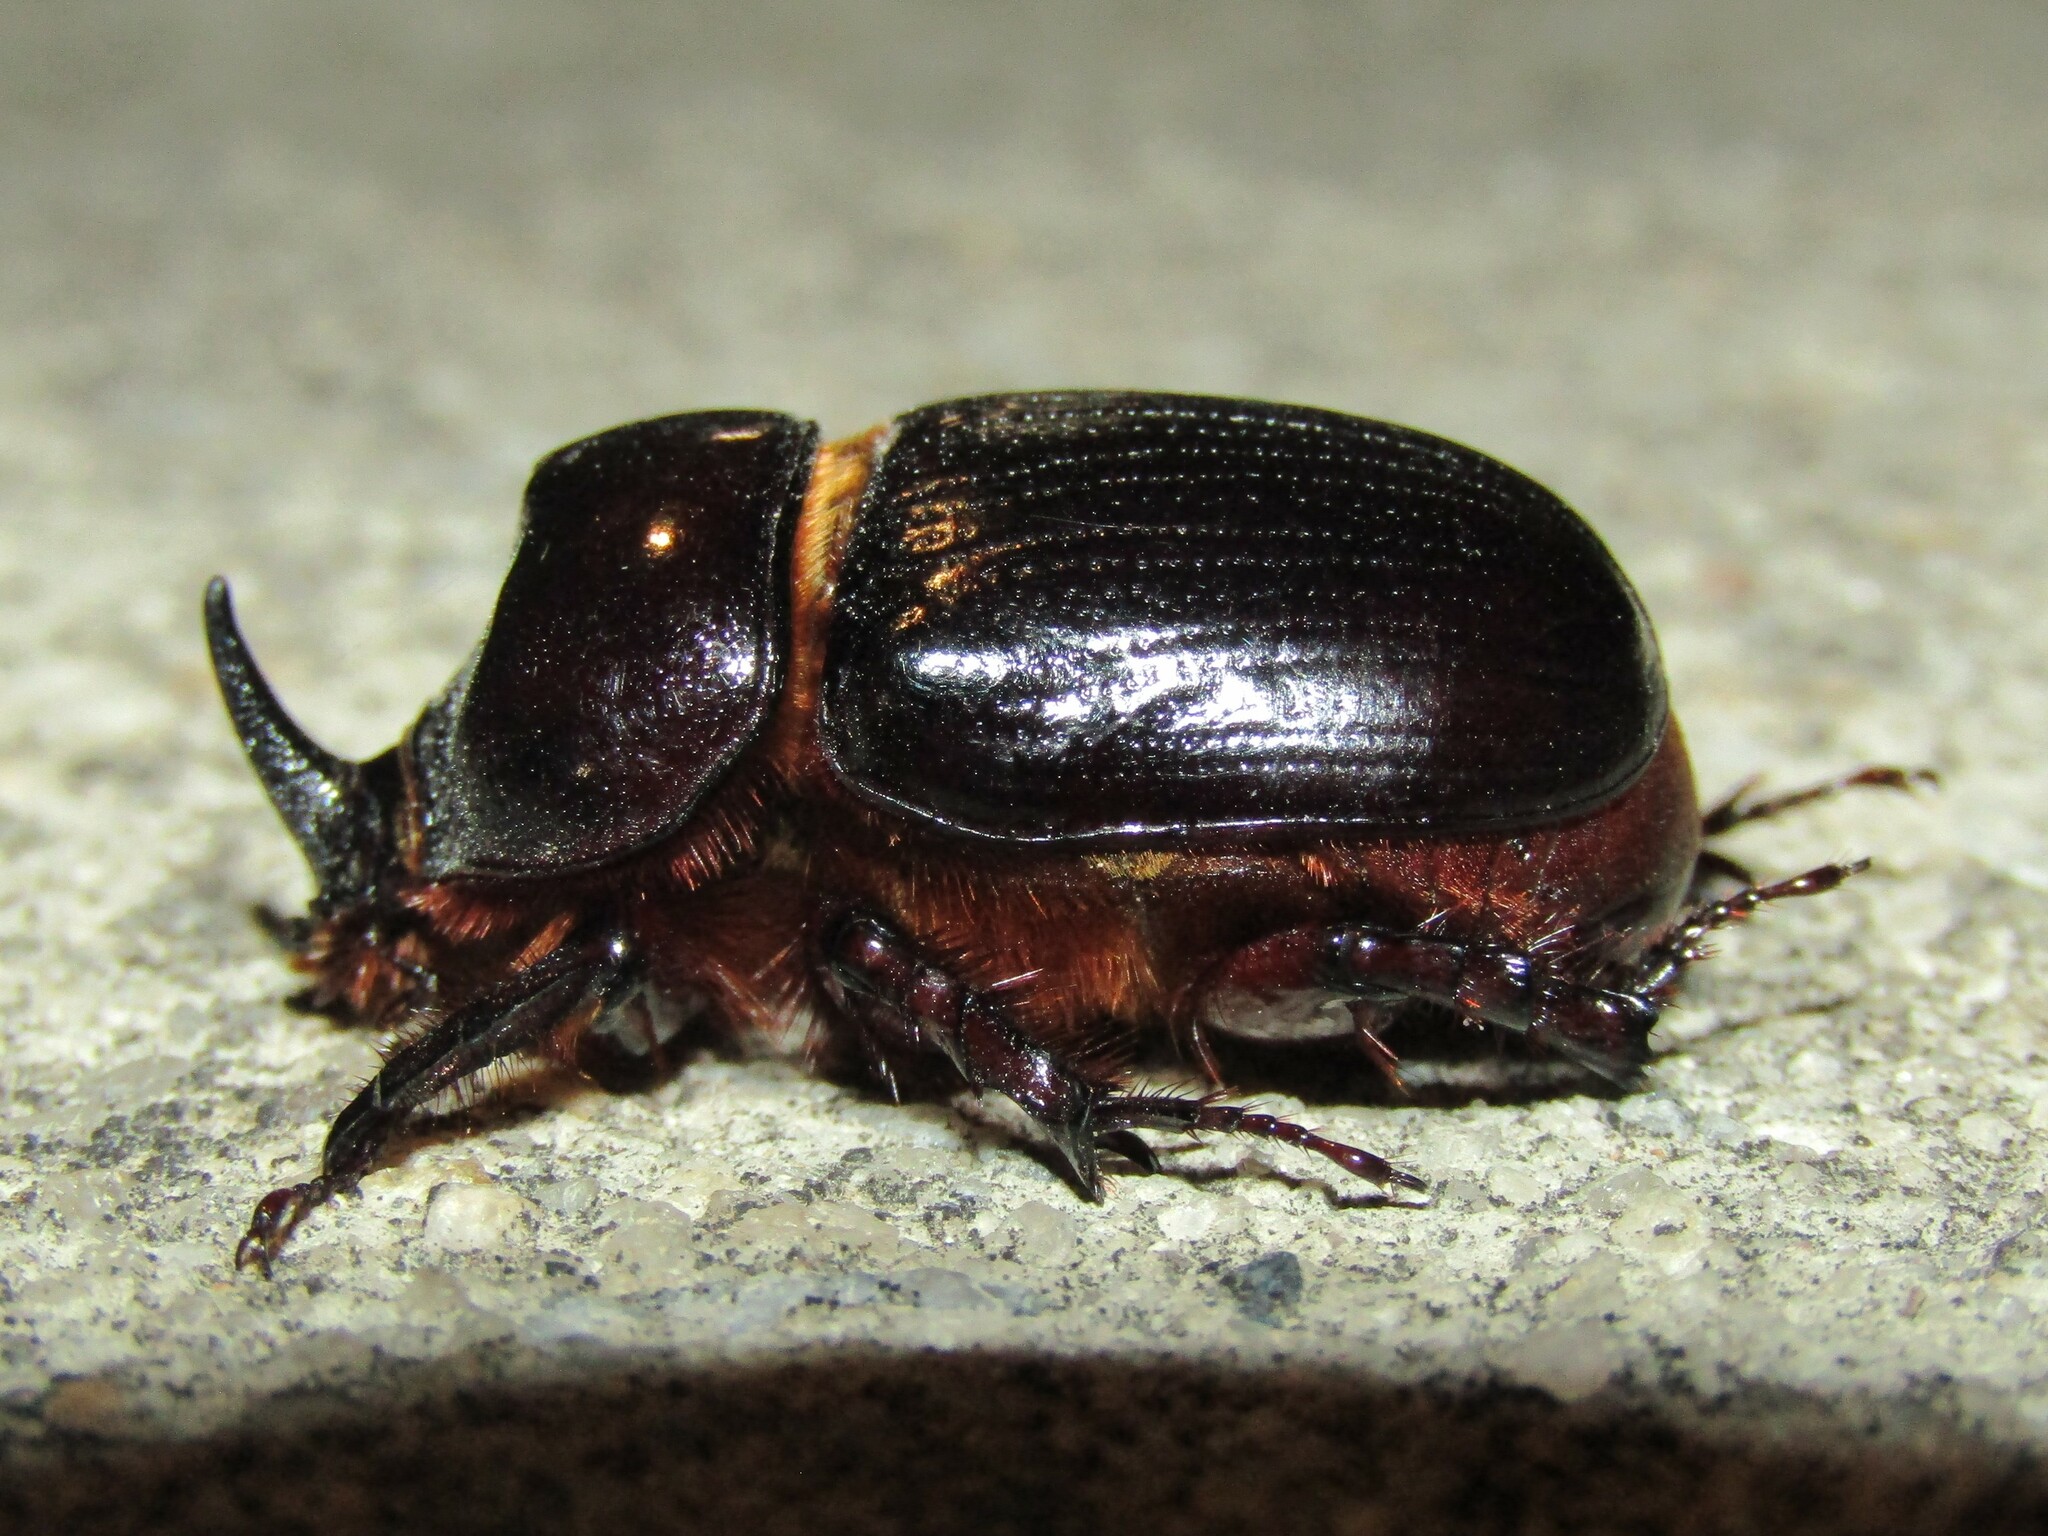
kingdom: Animalia
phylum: Arthropoda
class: Insecta
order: Coleoptera
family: Scarabaeidae
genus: Xyloryctes
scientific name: Xyloryctes jamaicensis
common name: Eastern rhinoceros beetle
